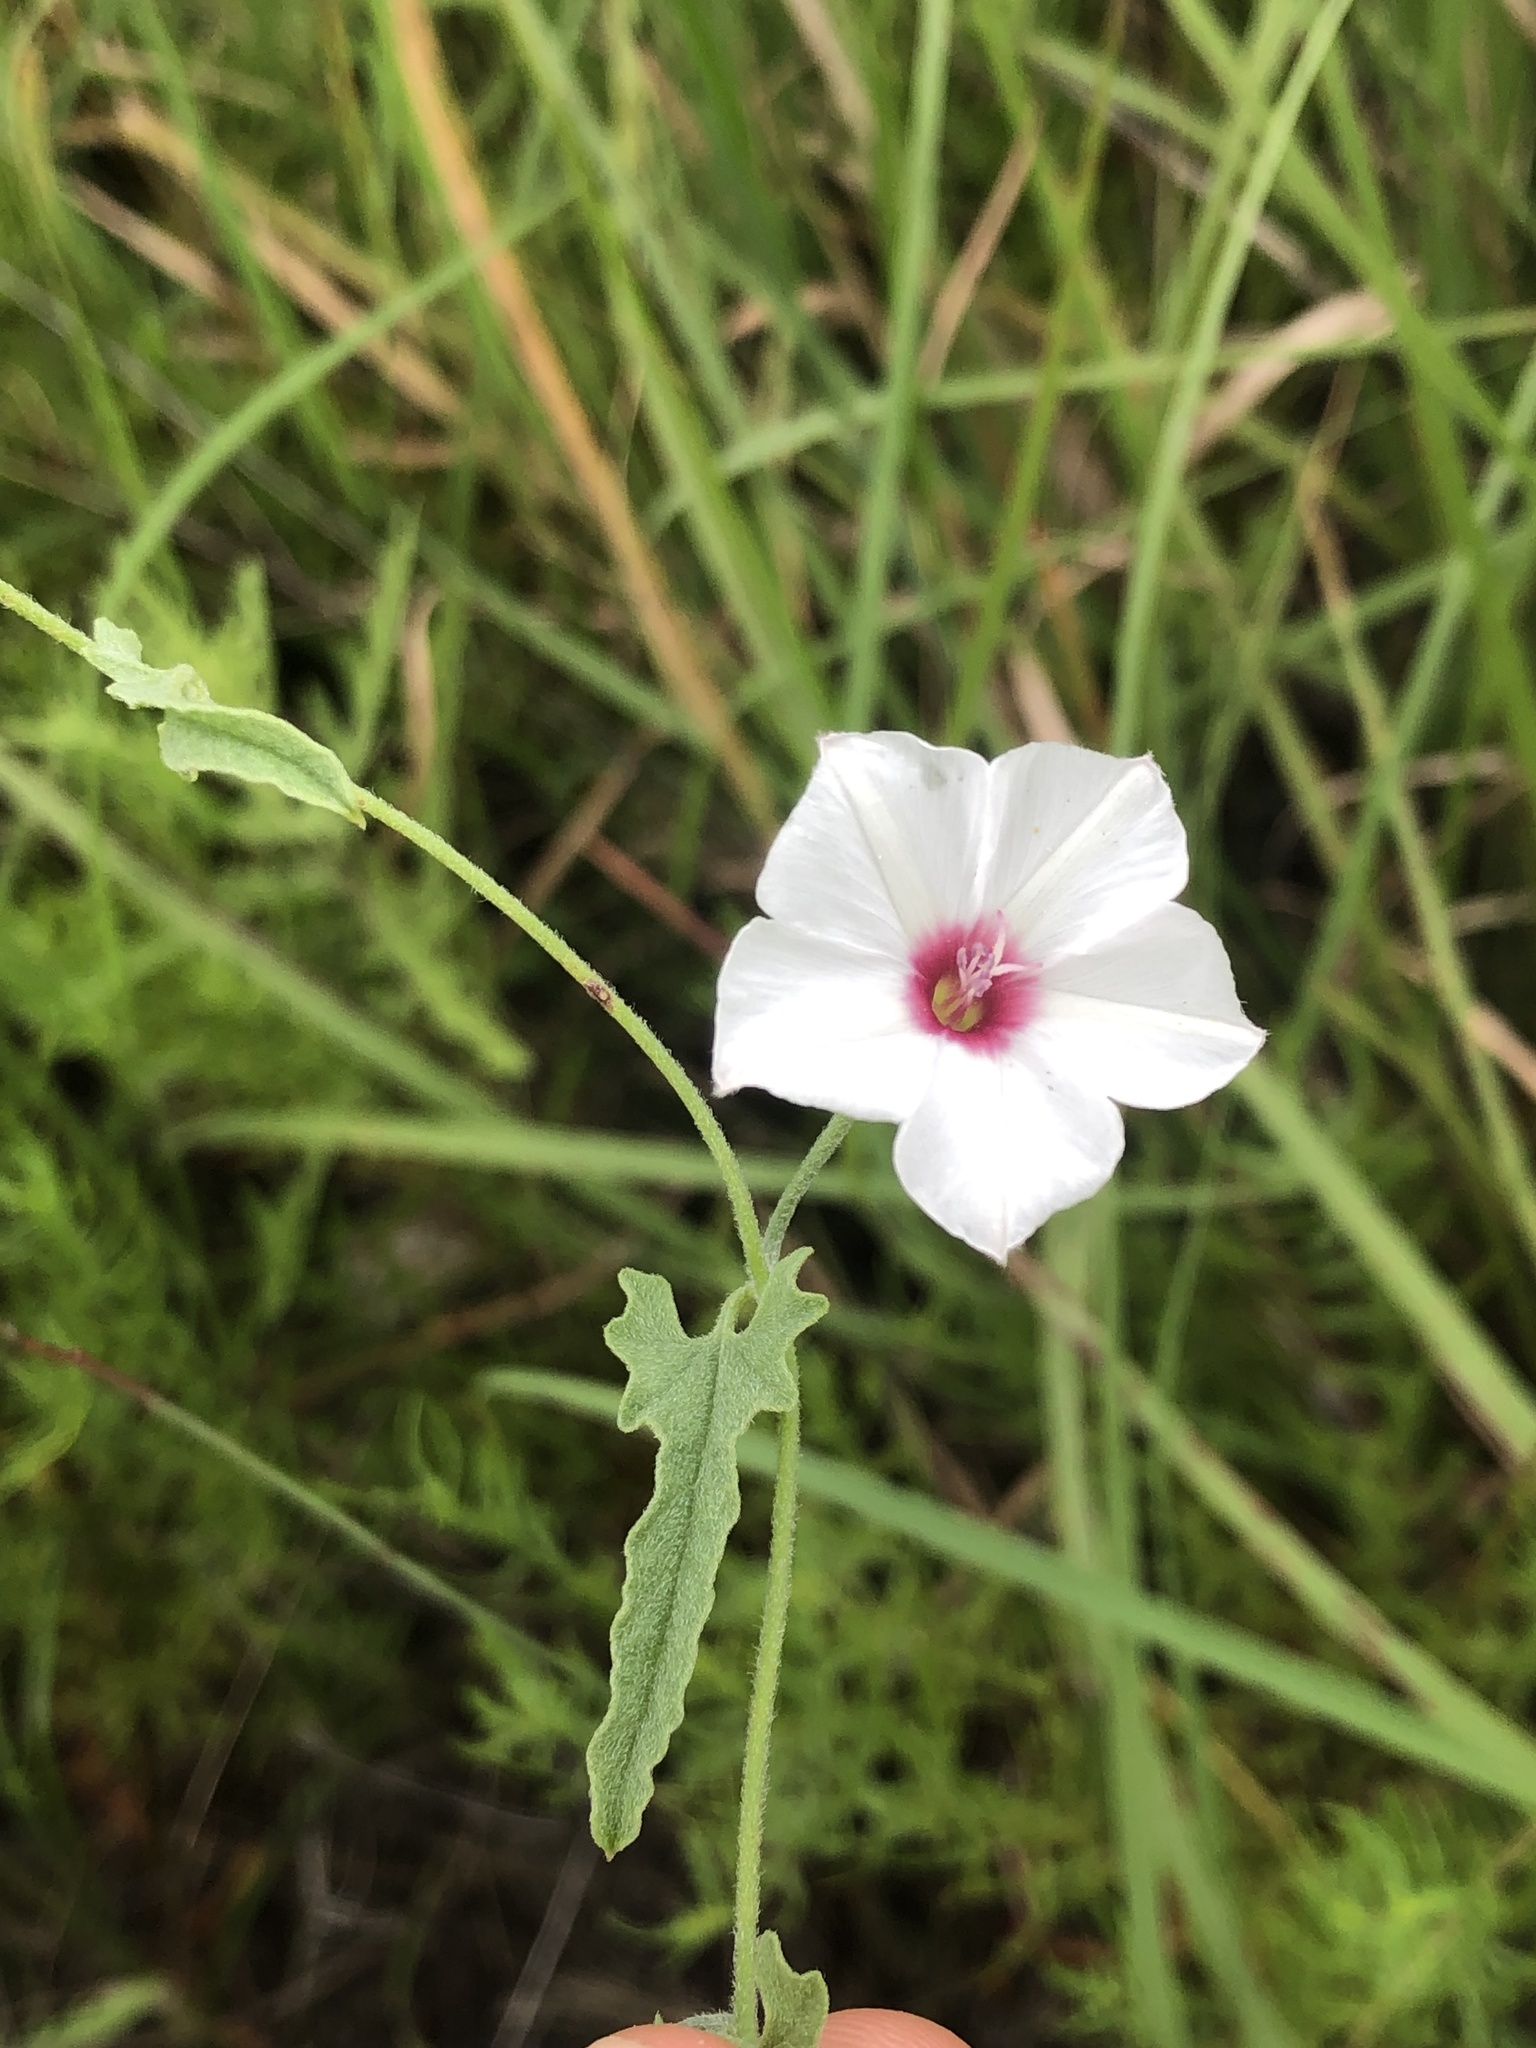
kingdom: Plantae
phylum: Tracheophyta
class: Magnoliopsida
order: Solanales
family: Convolvulaceae
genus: Convolvulus
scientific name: Convolvulus equitans
